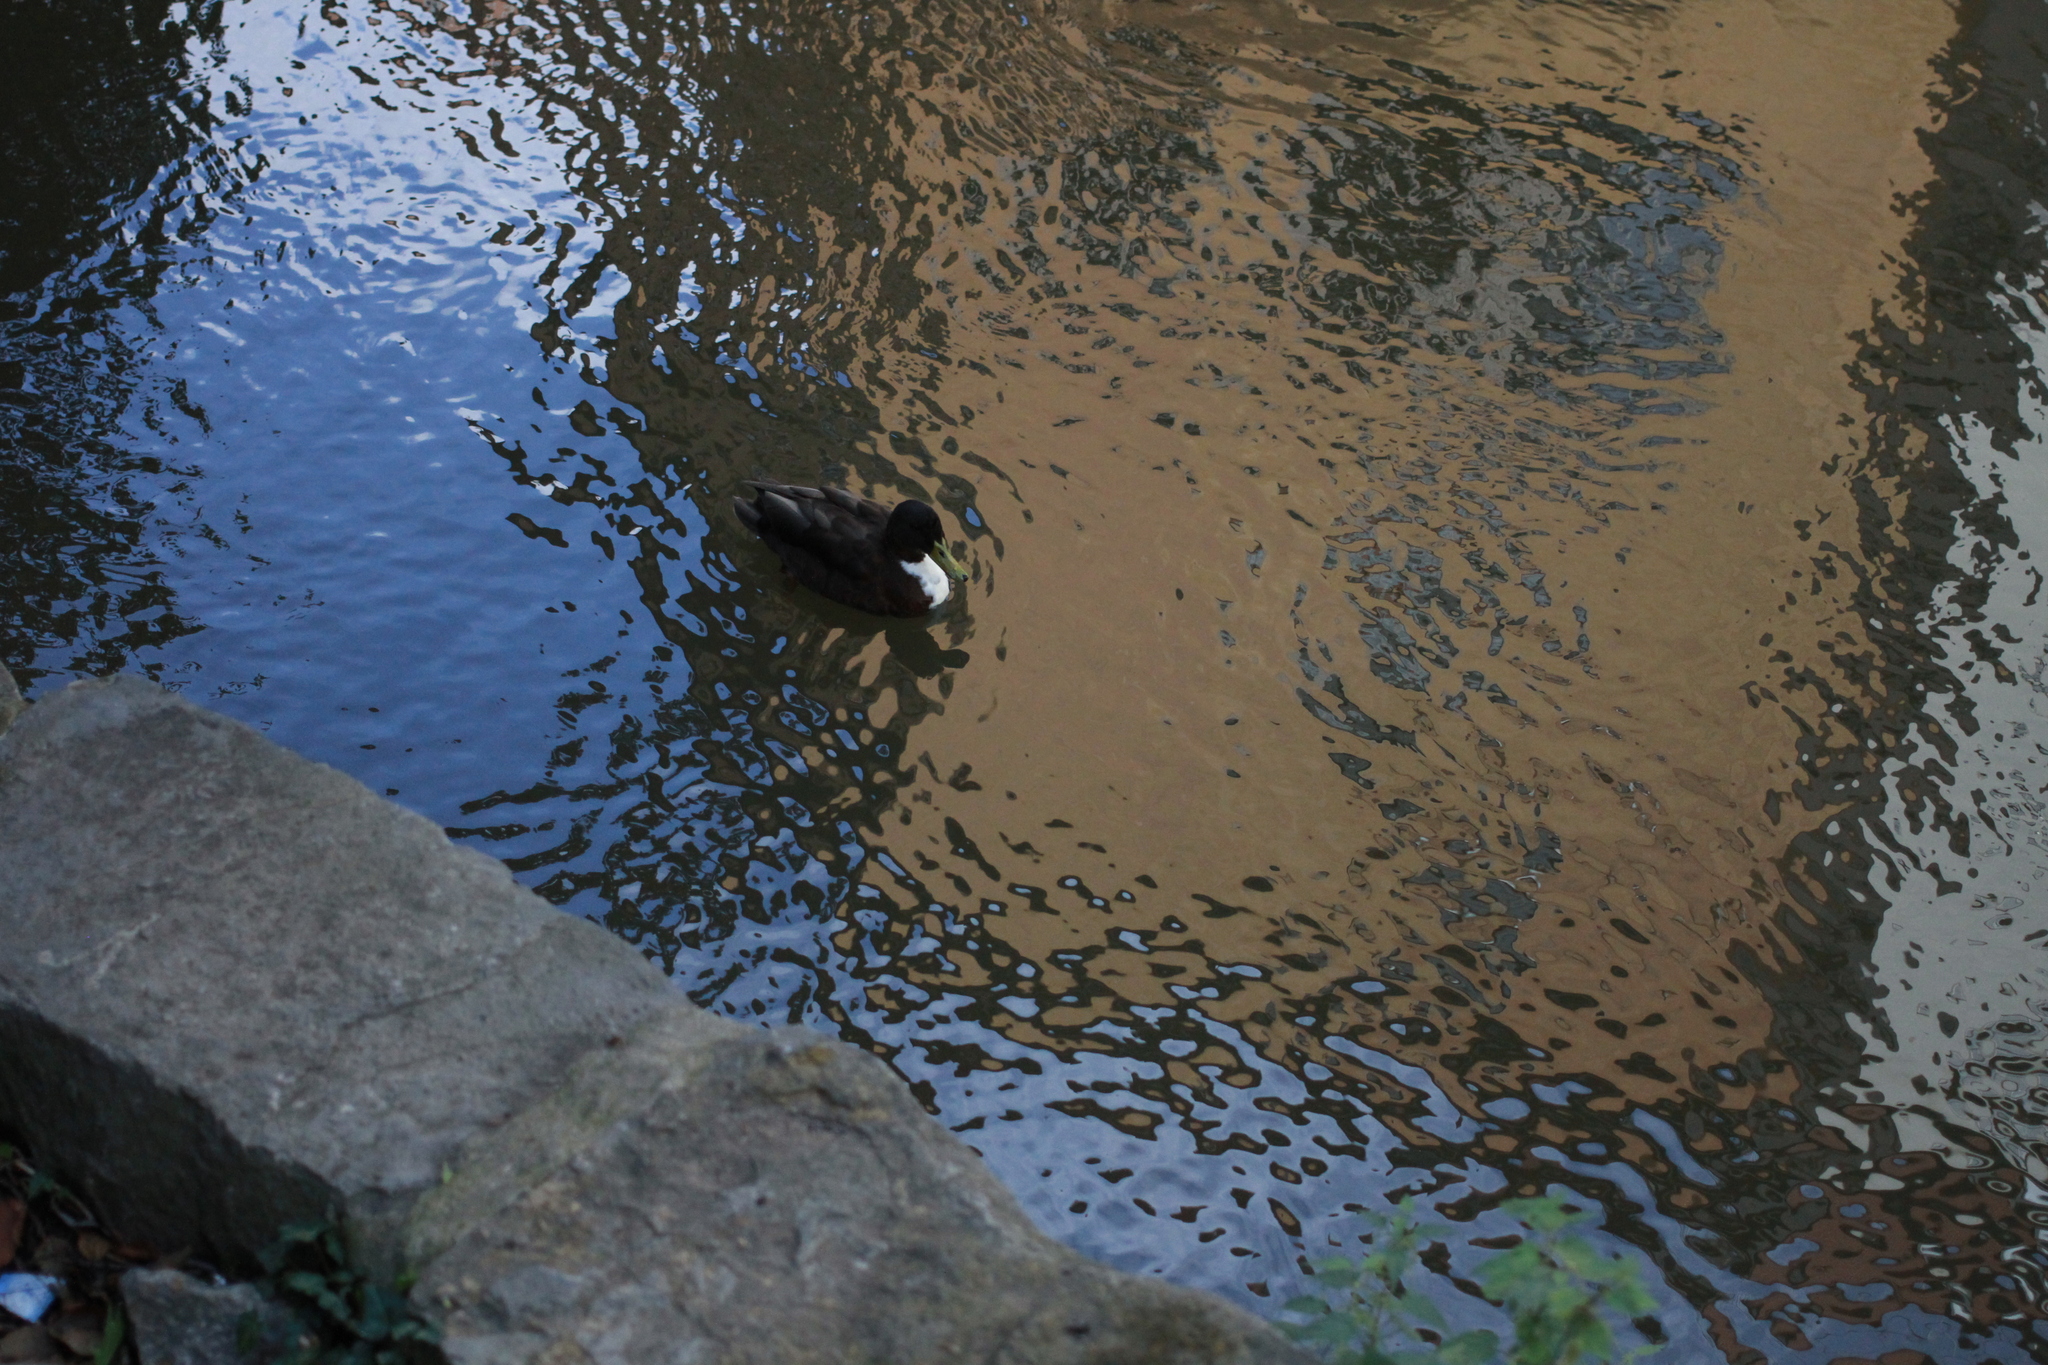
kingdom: Animalia
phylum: Chordata
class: Aves
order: Anseriformes
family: Anatidae
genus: Anas
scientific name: Anas platyrhynchos
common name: Mallard
